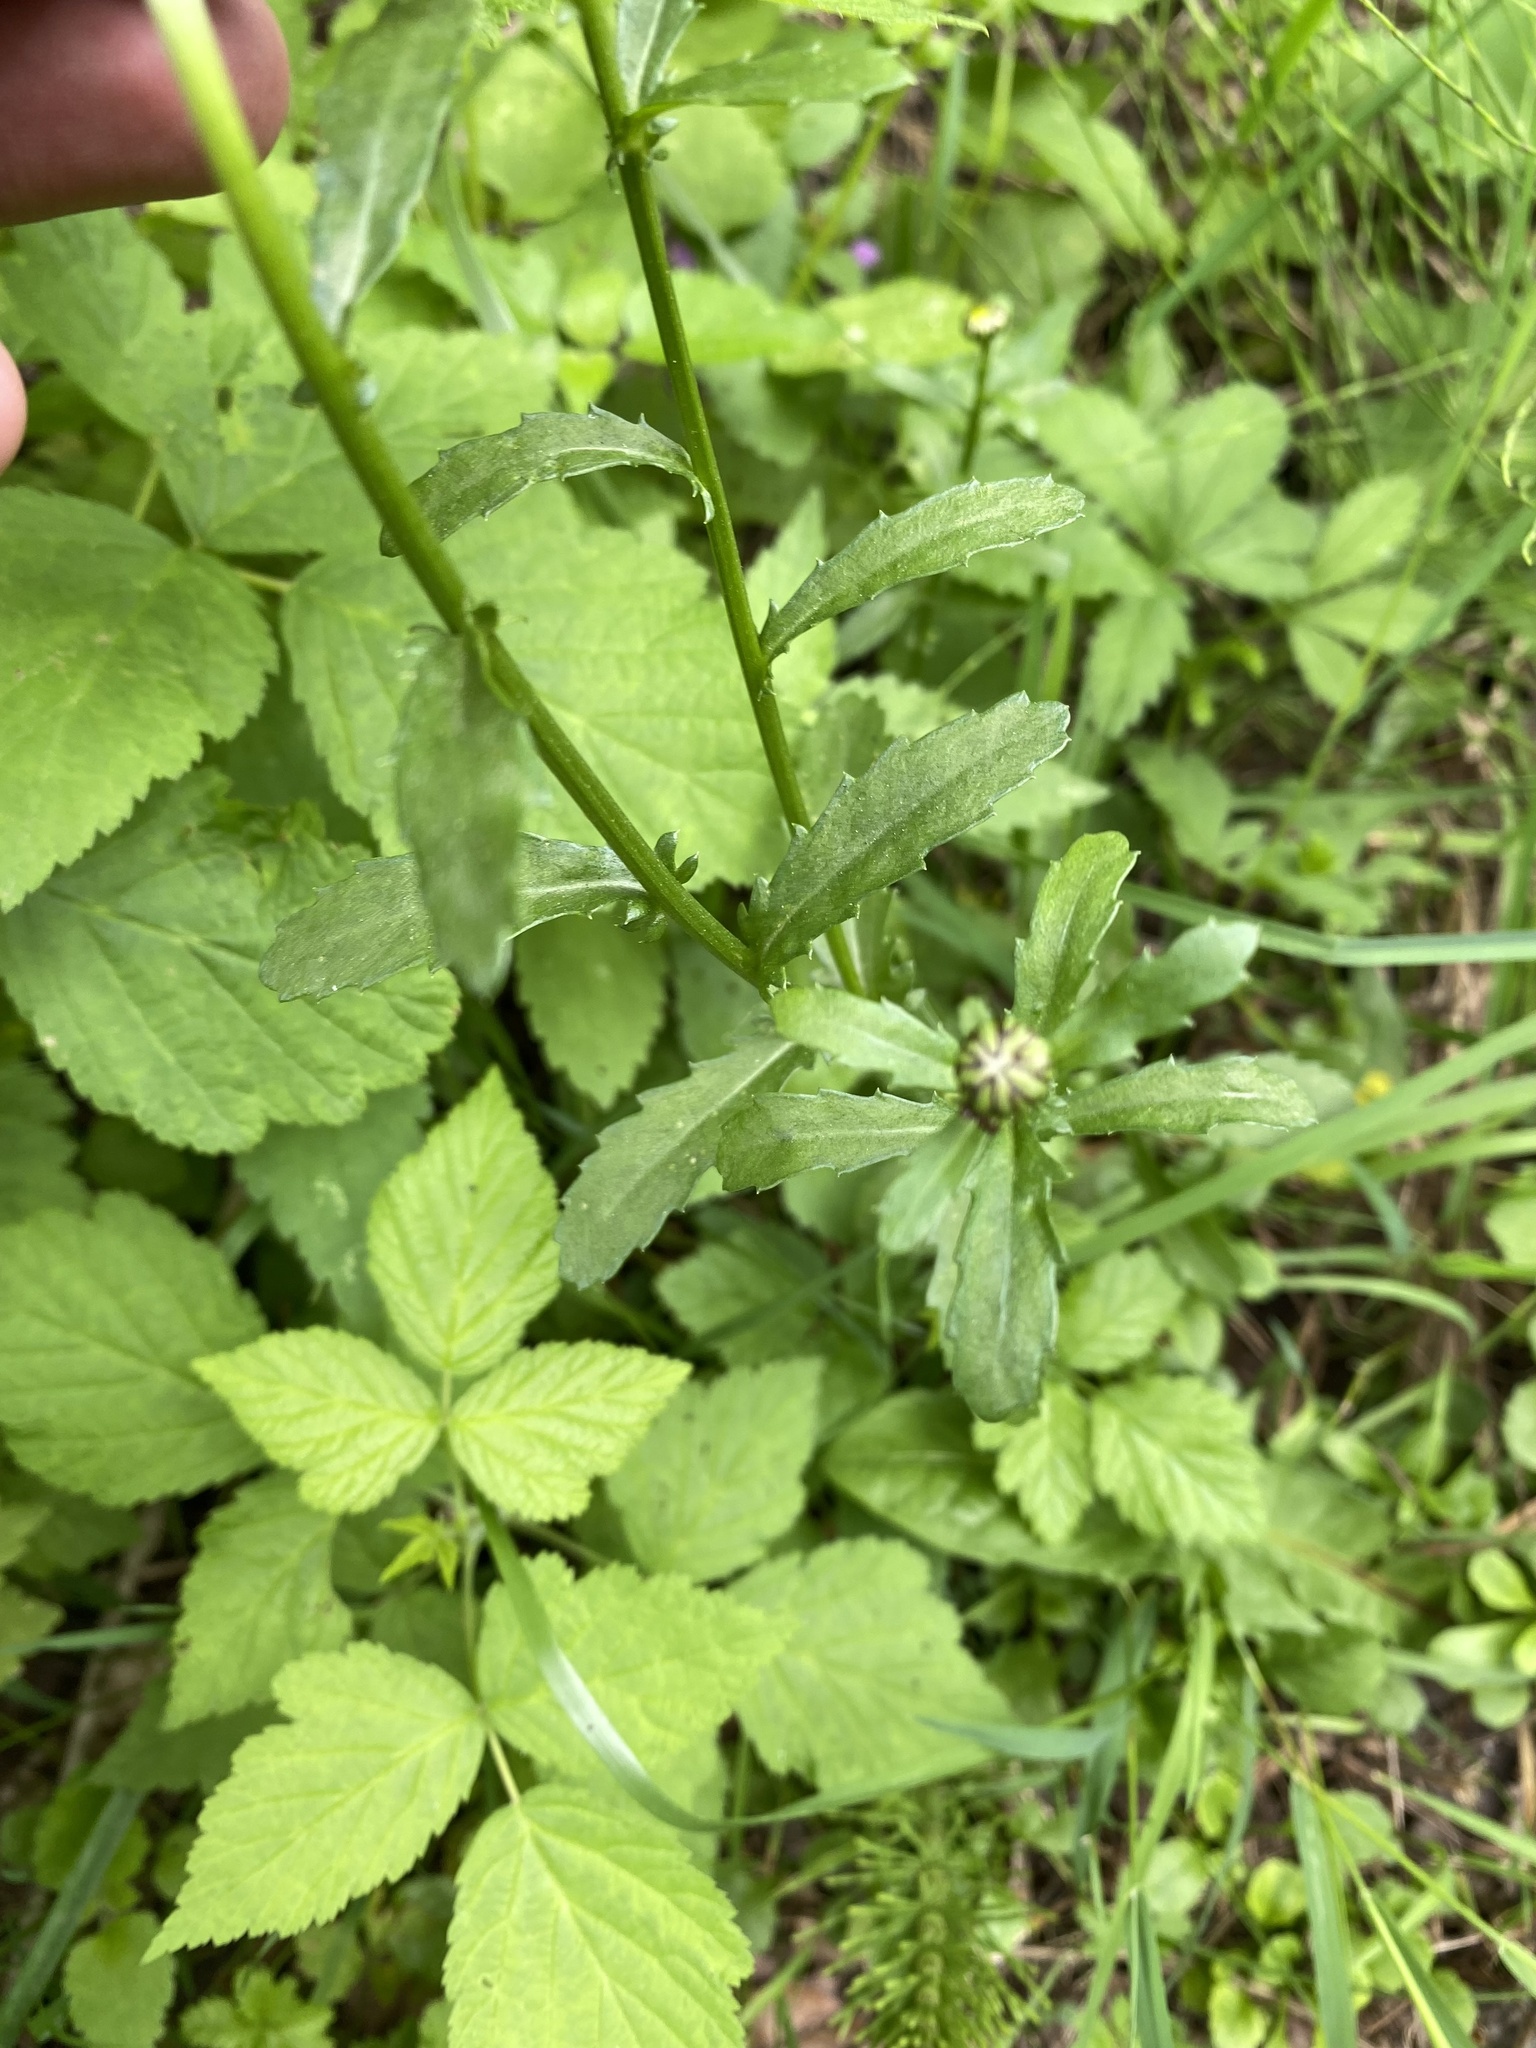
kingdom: Plantae
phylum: Tracheophyta
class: Magnoliopsida
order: Asterales
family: Asteraceae
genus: Leucanthemum
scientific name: Leucanthemum vulgare
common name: Oxeye daisy
